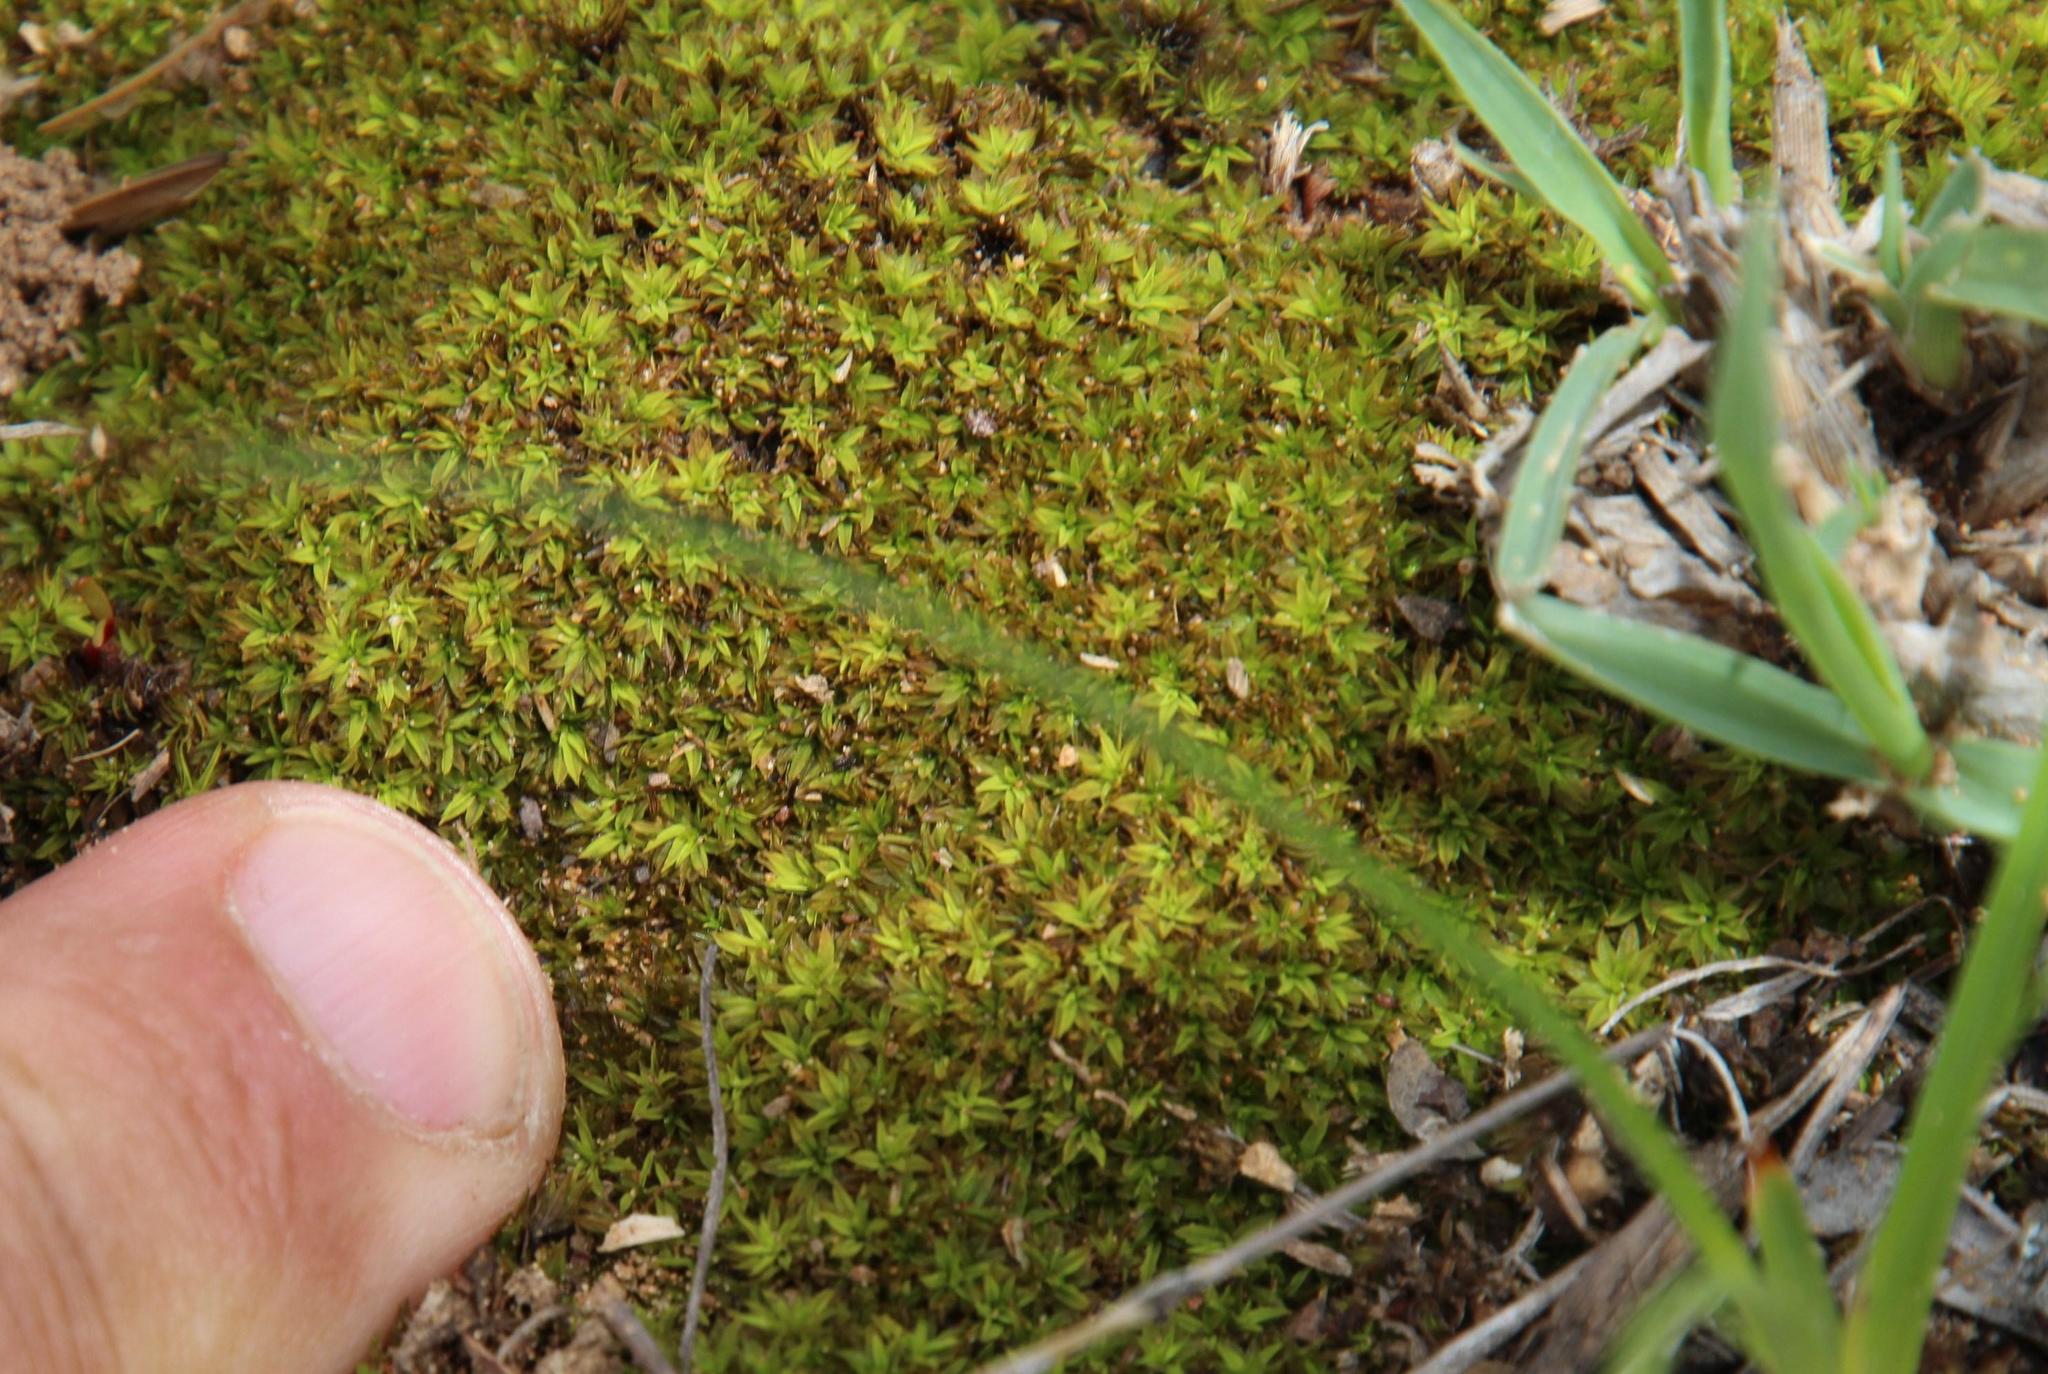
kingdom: Plantae
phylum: Bryophyta
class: Bryopsida
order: Pottiales
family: Pottiaceae
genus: Trichostomum
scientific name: Trichostomum brachydontium
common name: Variable crisp-moss
